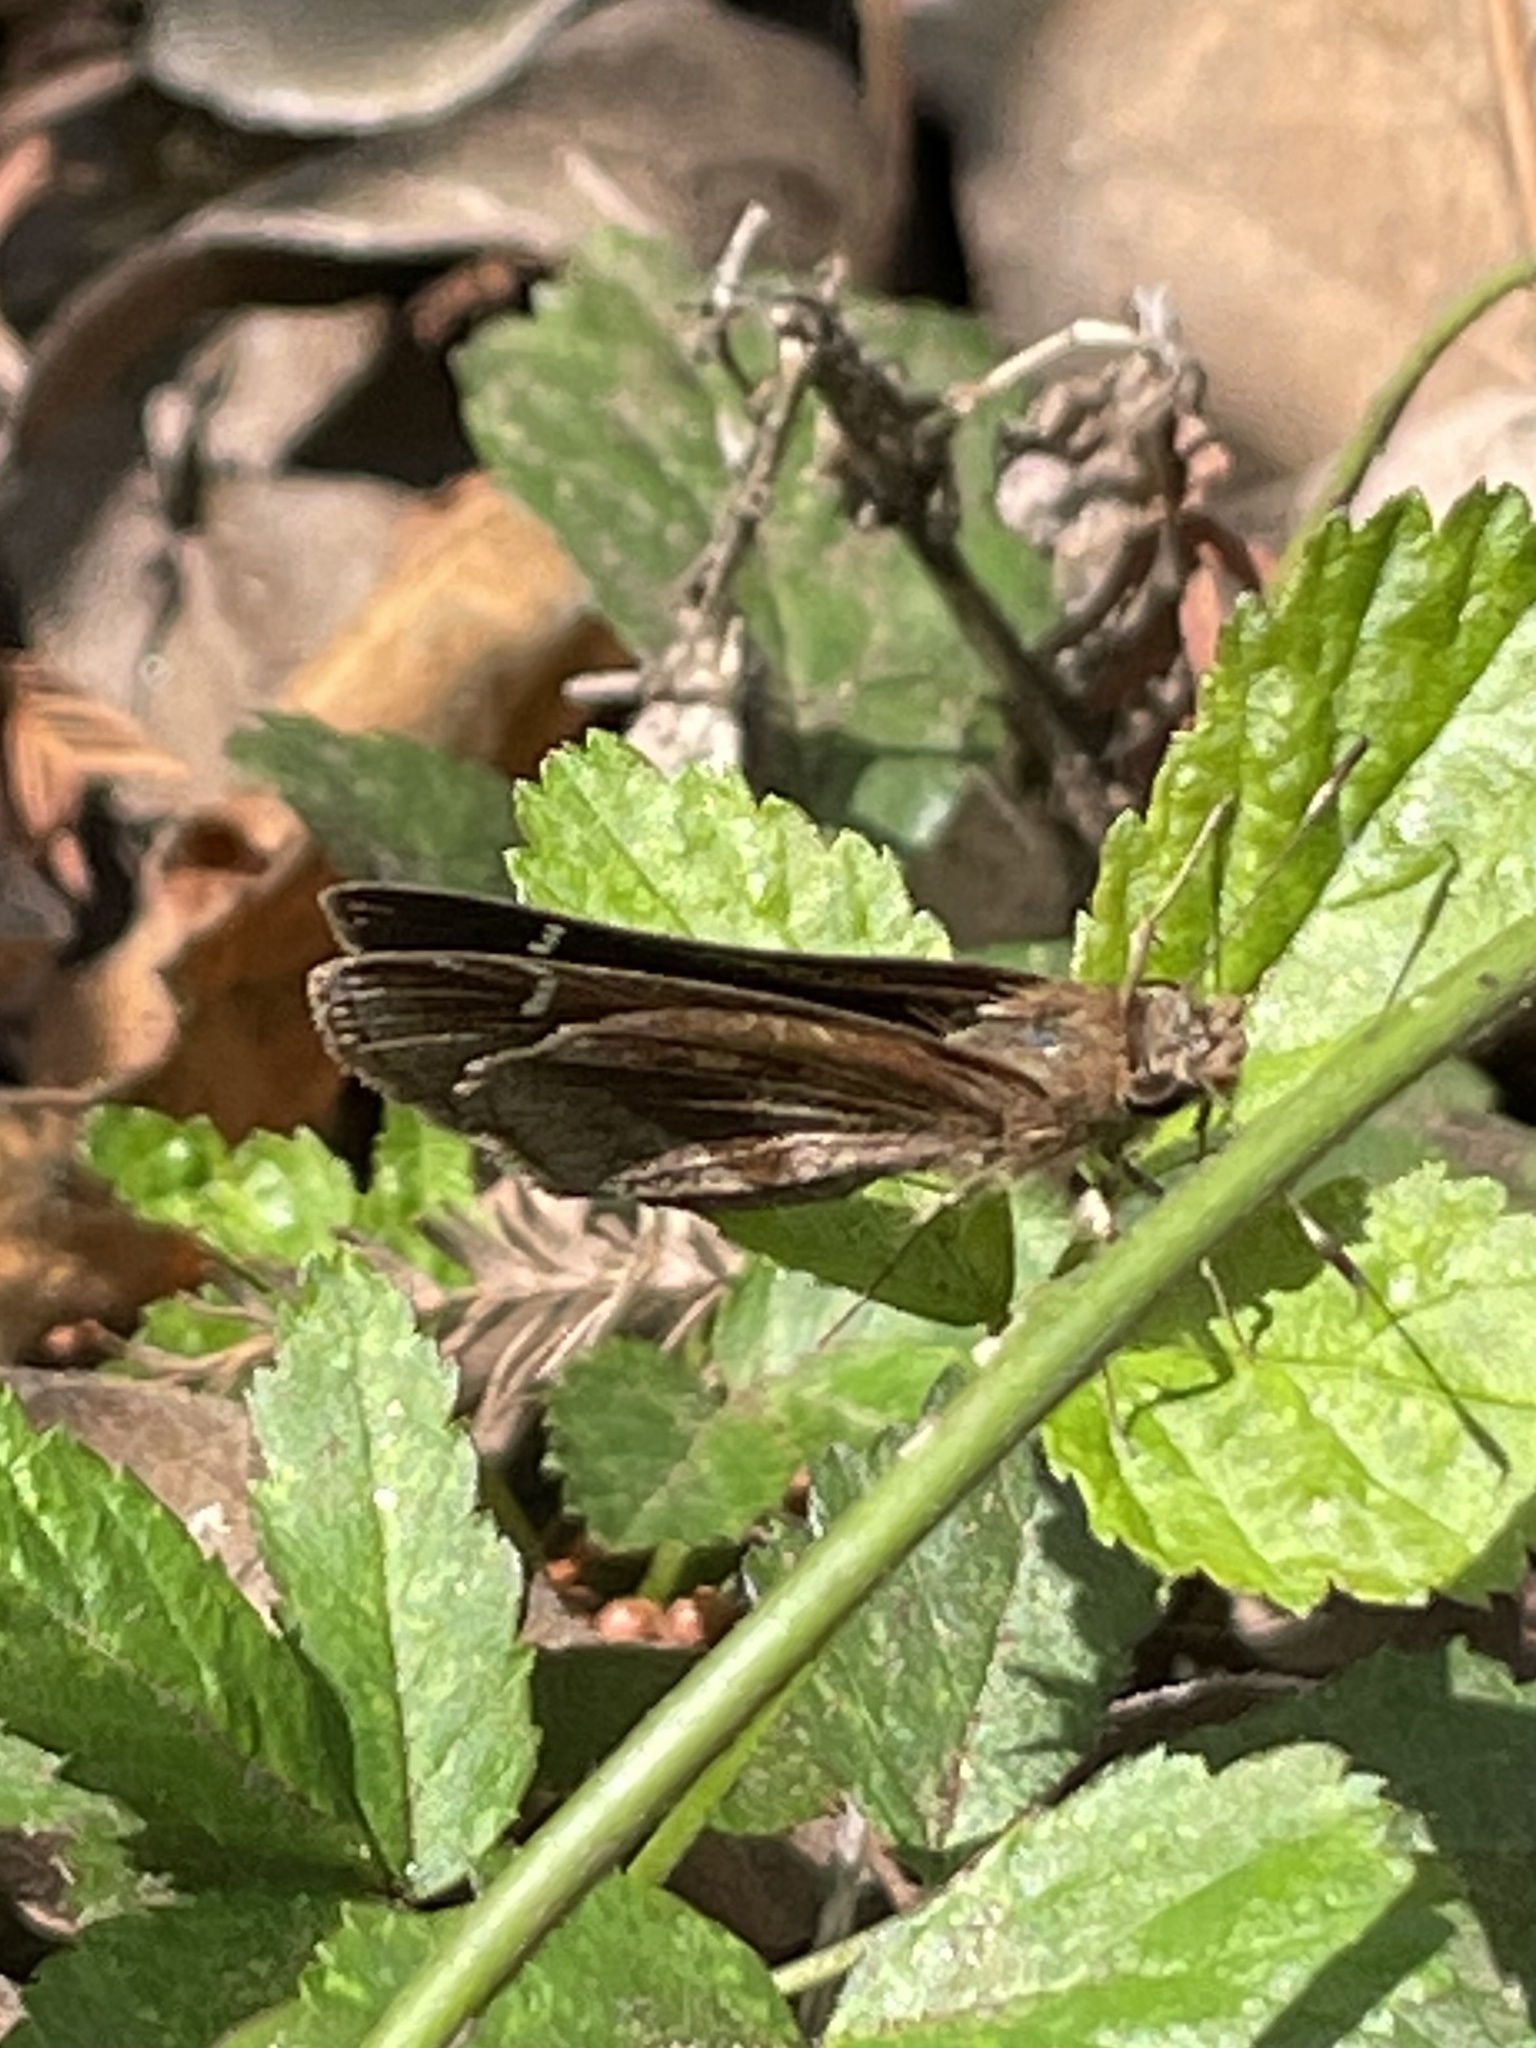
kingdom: Animalia
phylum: Arthropoda
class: Insecta
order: Lepidoptera
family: Hesperiidae
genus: Lerema
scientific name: Lerema accius
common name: Clouded skipper
